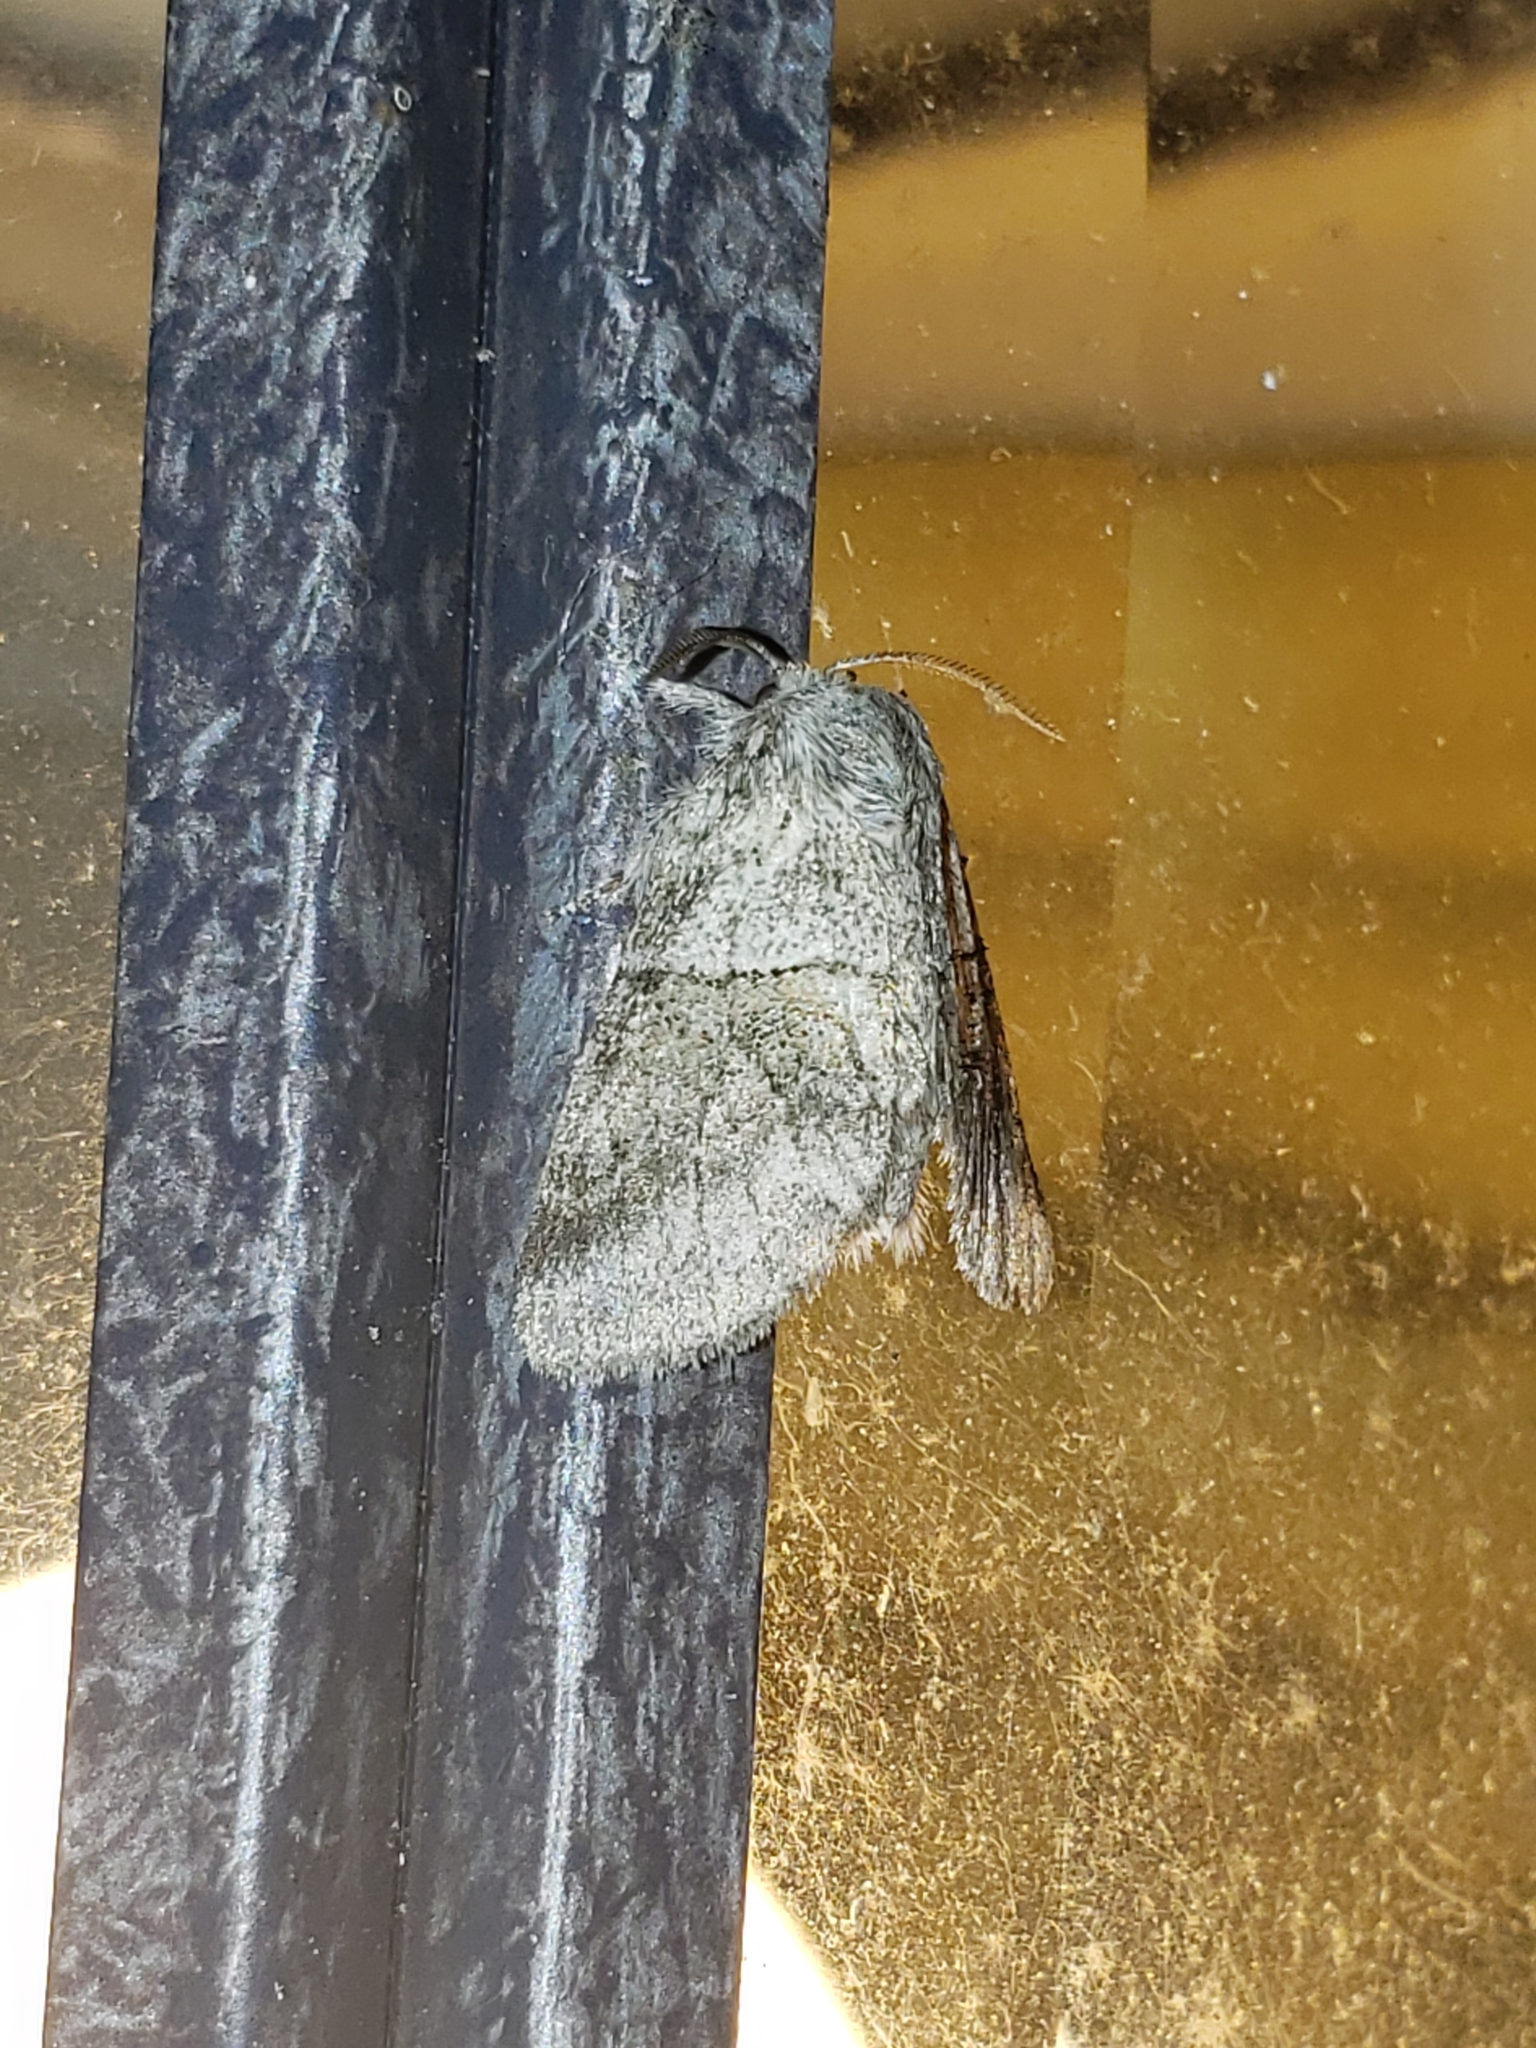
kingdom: Animalia
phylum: Arthropoda
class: Insecta
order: Lepidoptera
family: Notodontidae
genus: Gluphisia
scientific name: Gluphisia septentrionis
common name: Common gluphisia
